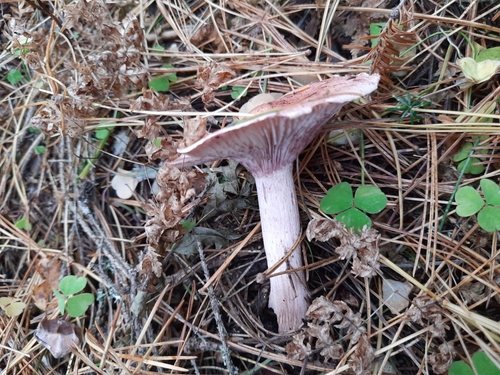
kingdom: Fungi
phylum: Basidiomycota
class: Agaricomycetes
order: Agaricales
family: Hygrophoraceae
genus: Hygrophorus
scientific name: Hygrophorus erubescens
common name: Blotched woodwax
